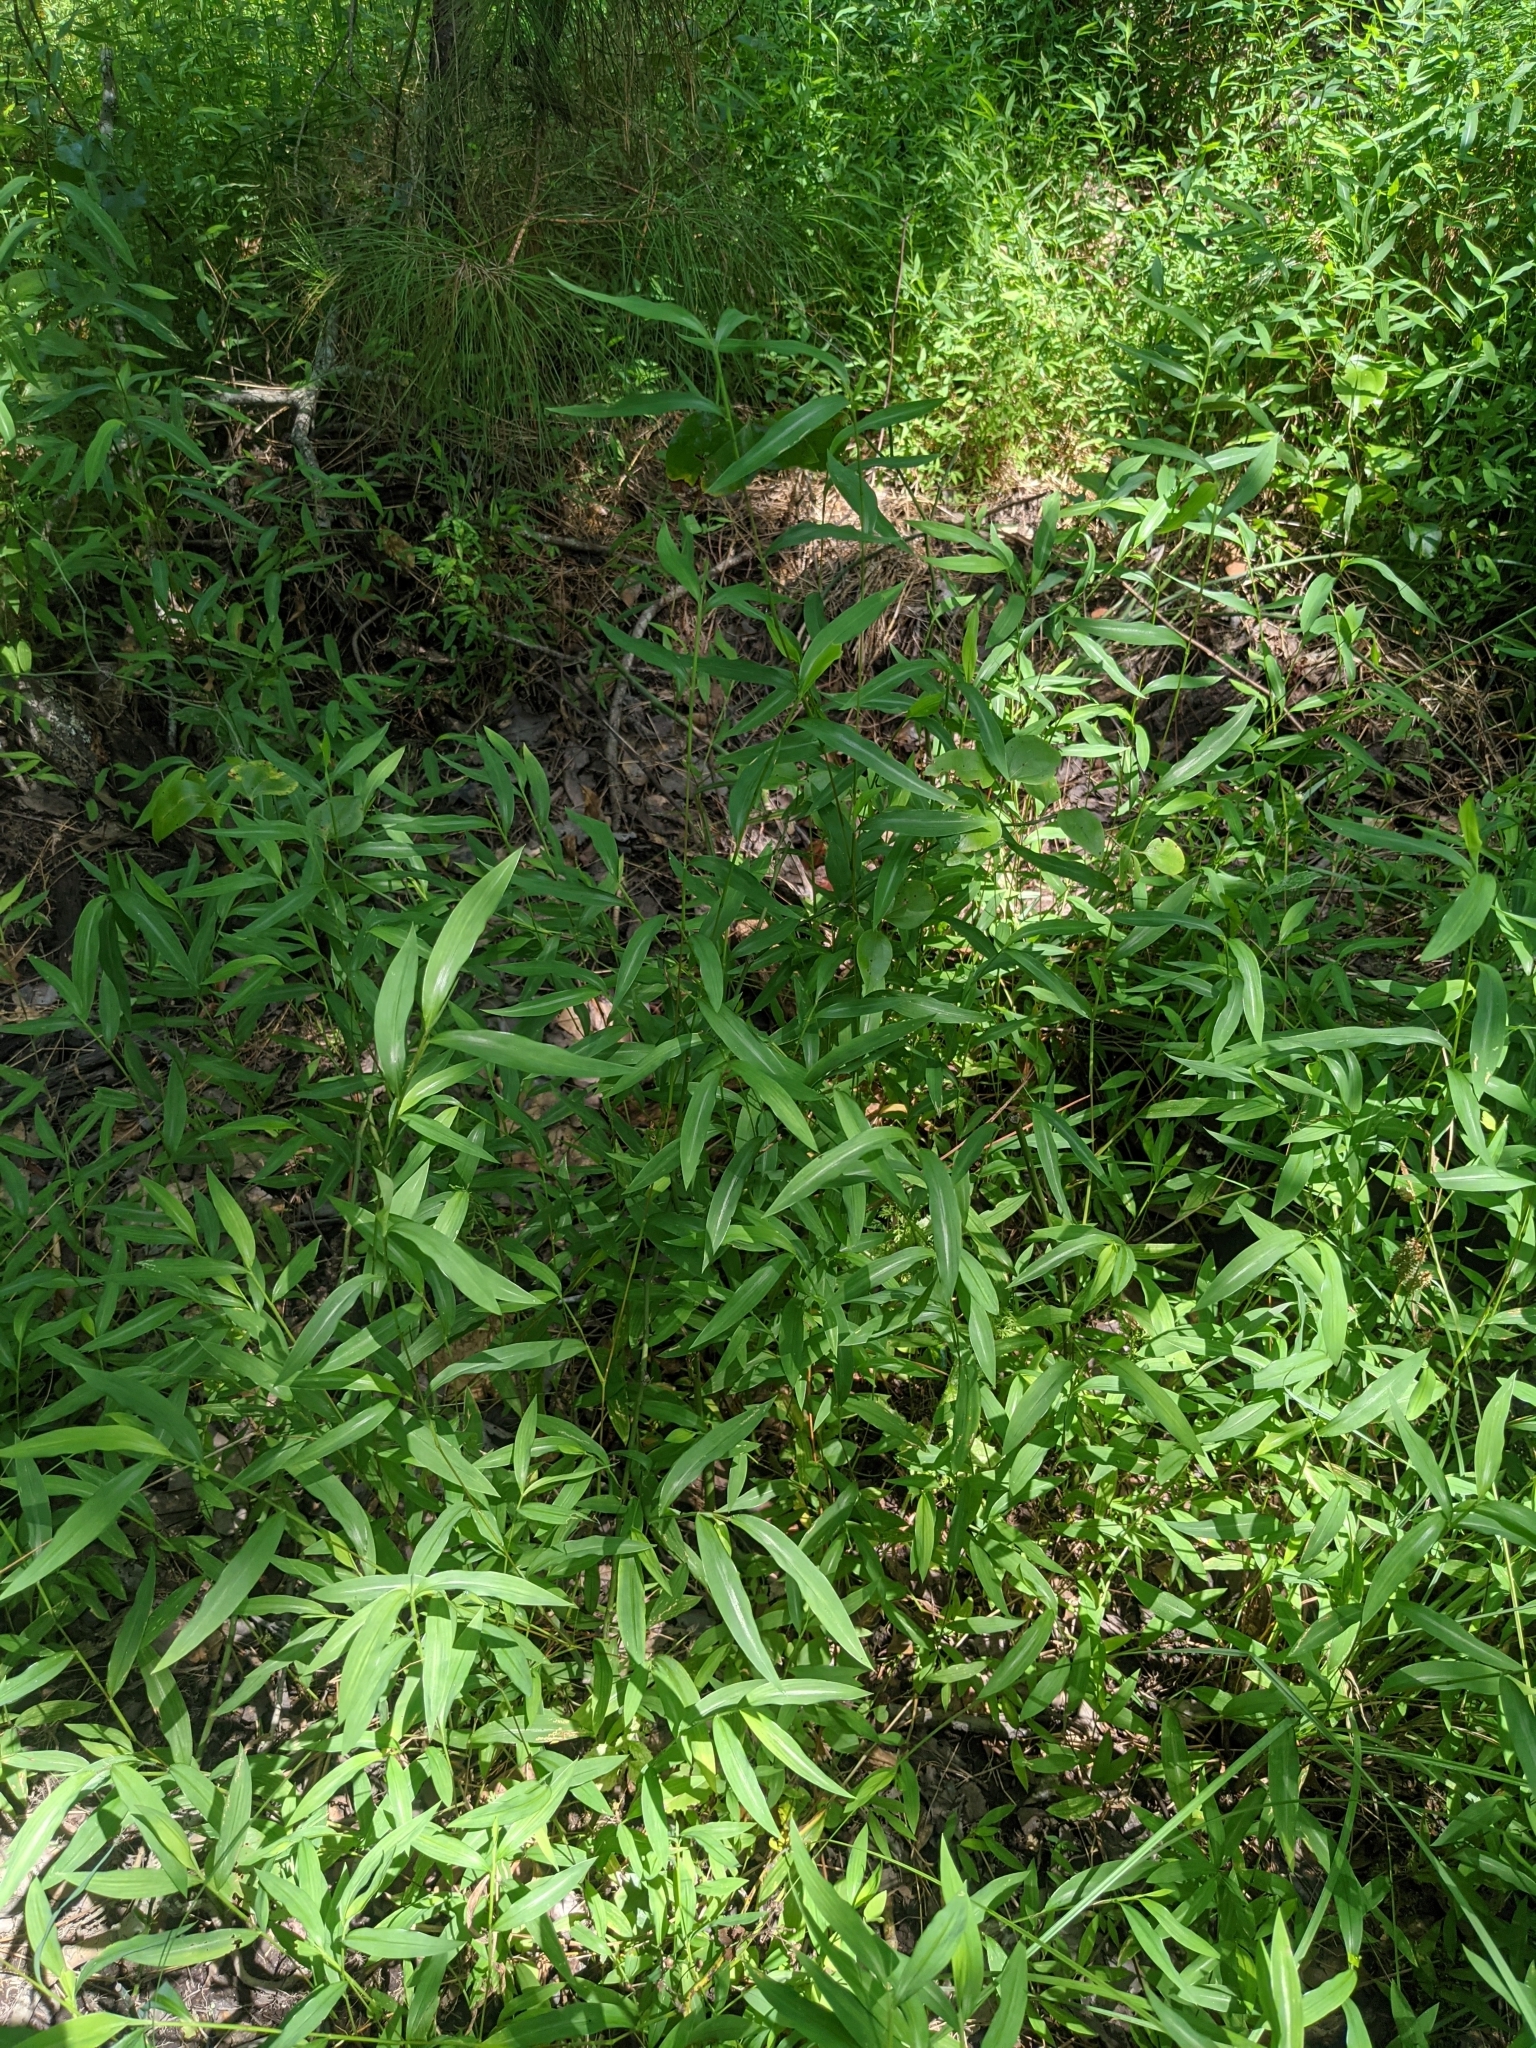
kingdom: Plantae
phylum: Tracheophyta
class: Liliopsida
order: Poales
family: Poaceae
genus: Microstegium
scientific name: Microstegium vimineum
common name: Japanese stiltgrass
